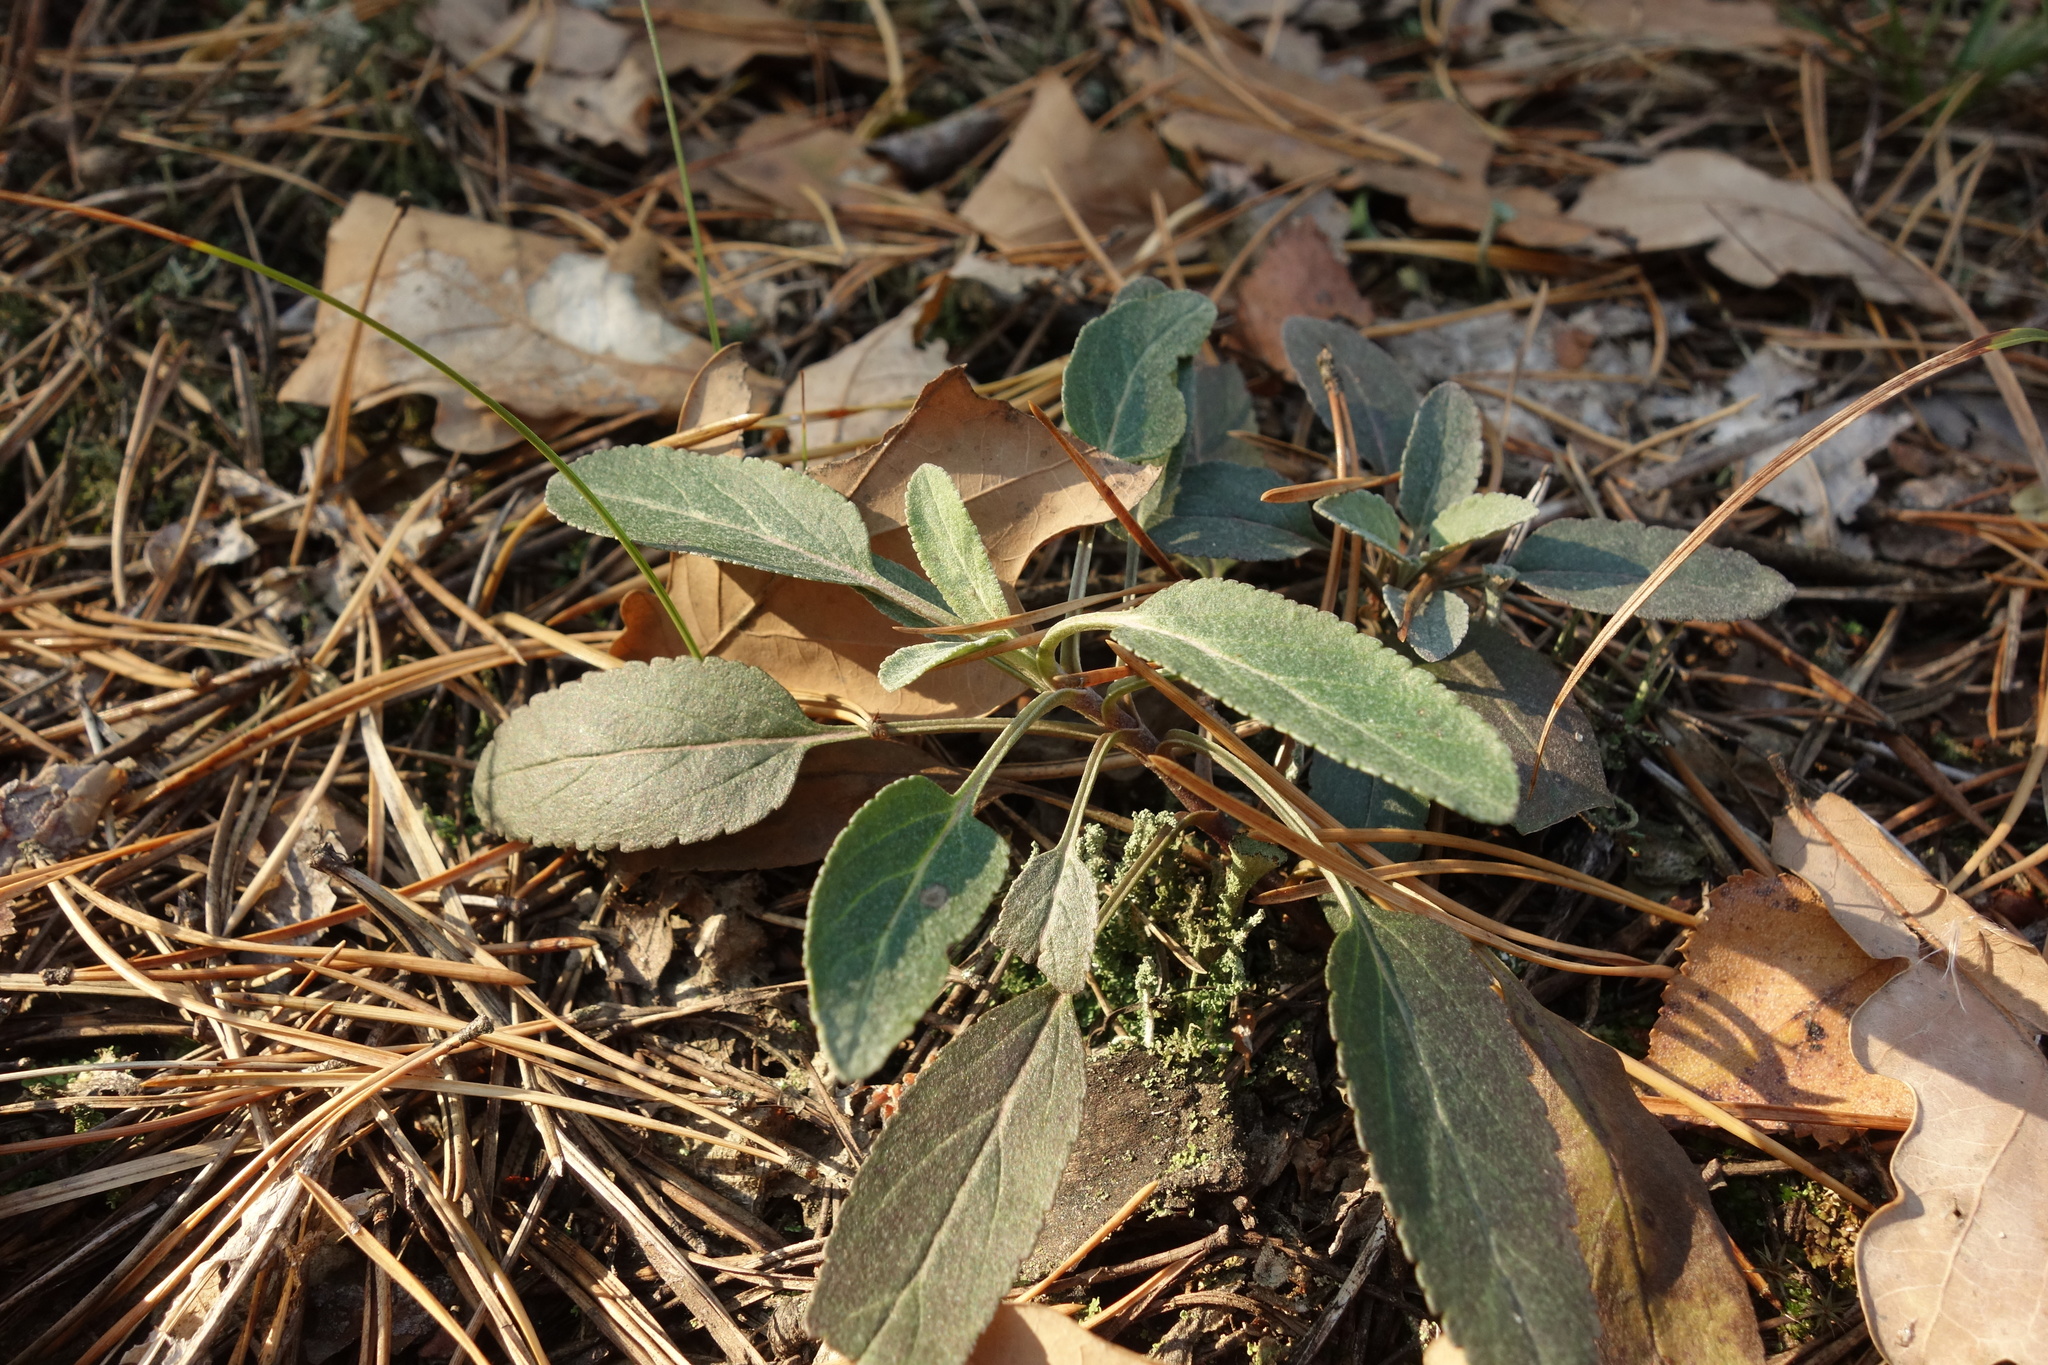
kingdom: Plantae
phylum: Tracheophyta
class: Magnoliopsida
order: Lamiales
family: Plantaginaceae
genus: Veronica
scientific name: Veronica incana
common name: Silver speedwell
